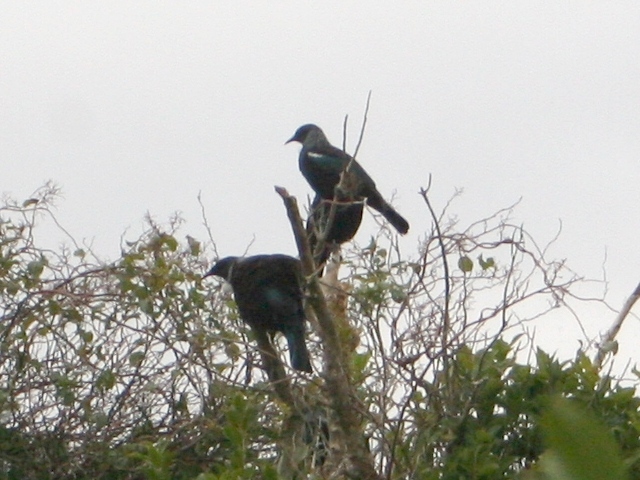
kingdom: Animalia
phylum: Chordata
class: Aves
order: Passeriformes
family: Meliphagidae
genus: Prosthemadera
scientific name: Prosthemadera novaeseelandiae
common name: Tui
